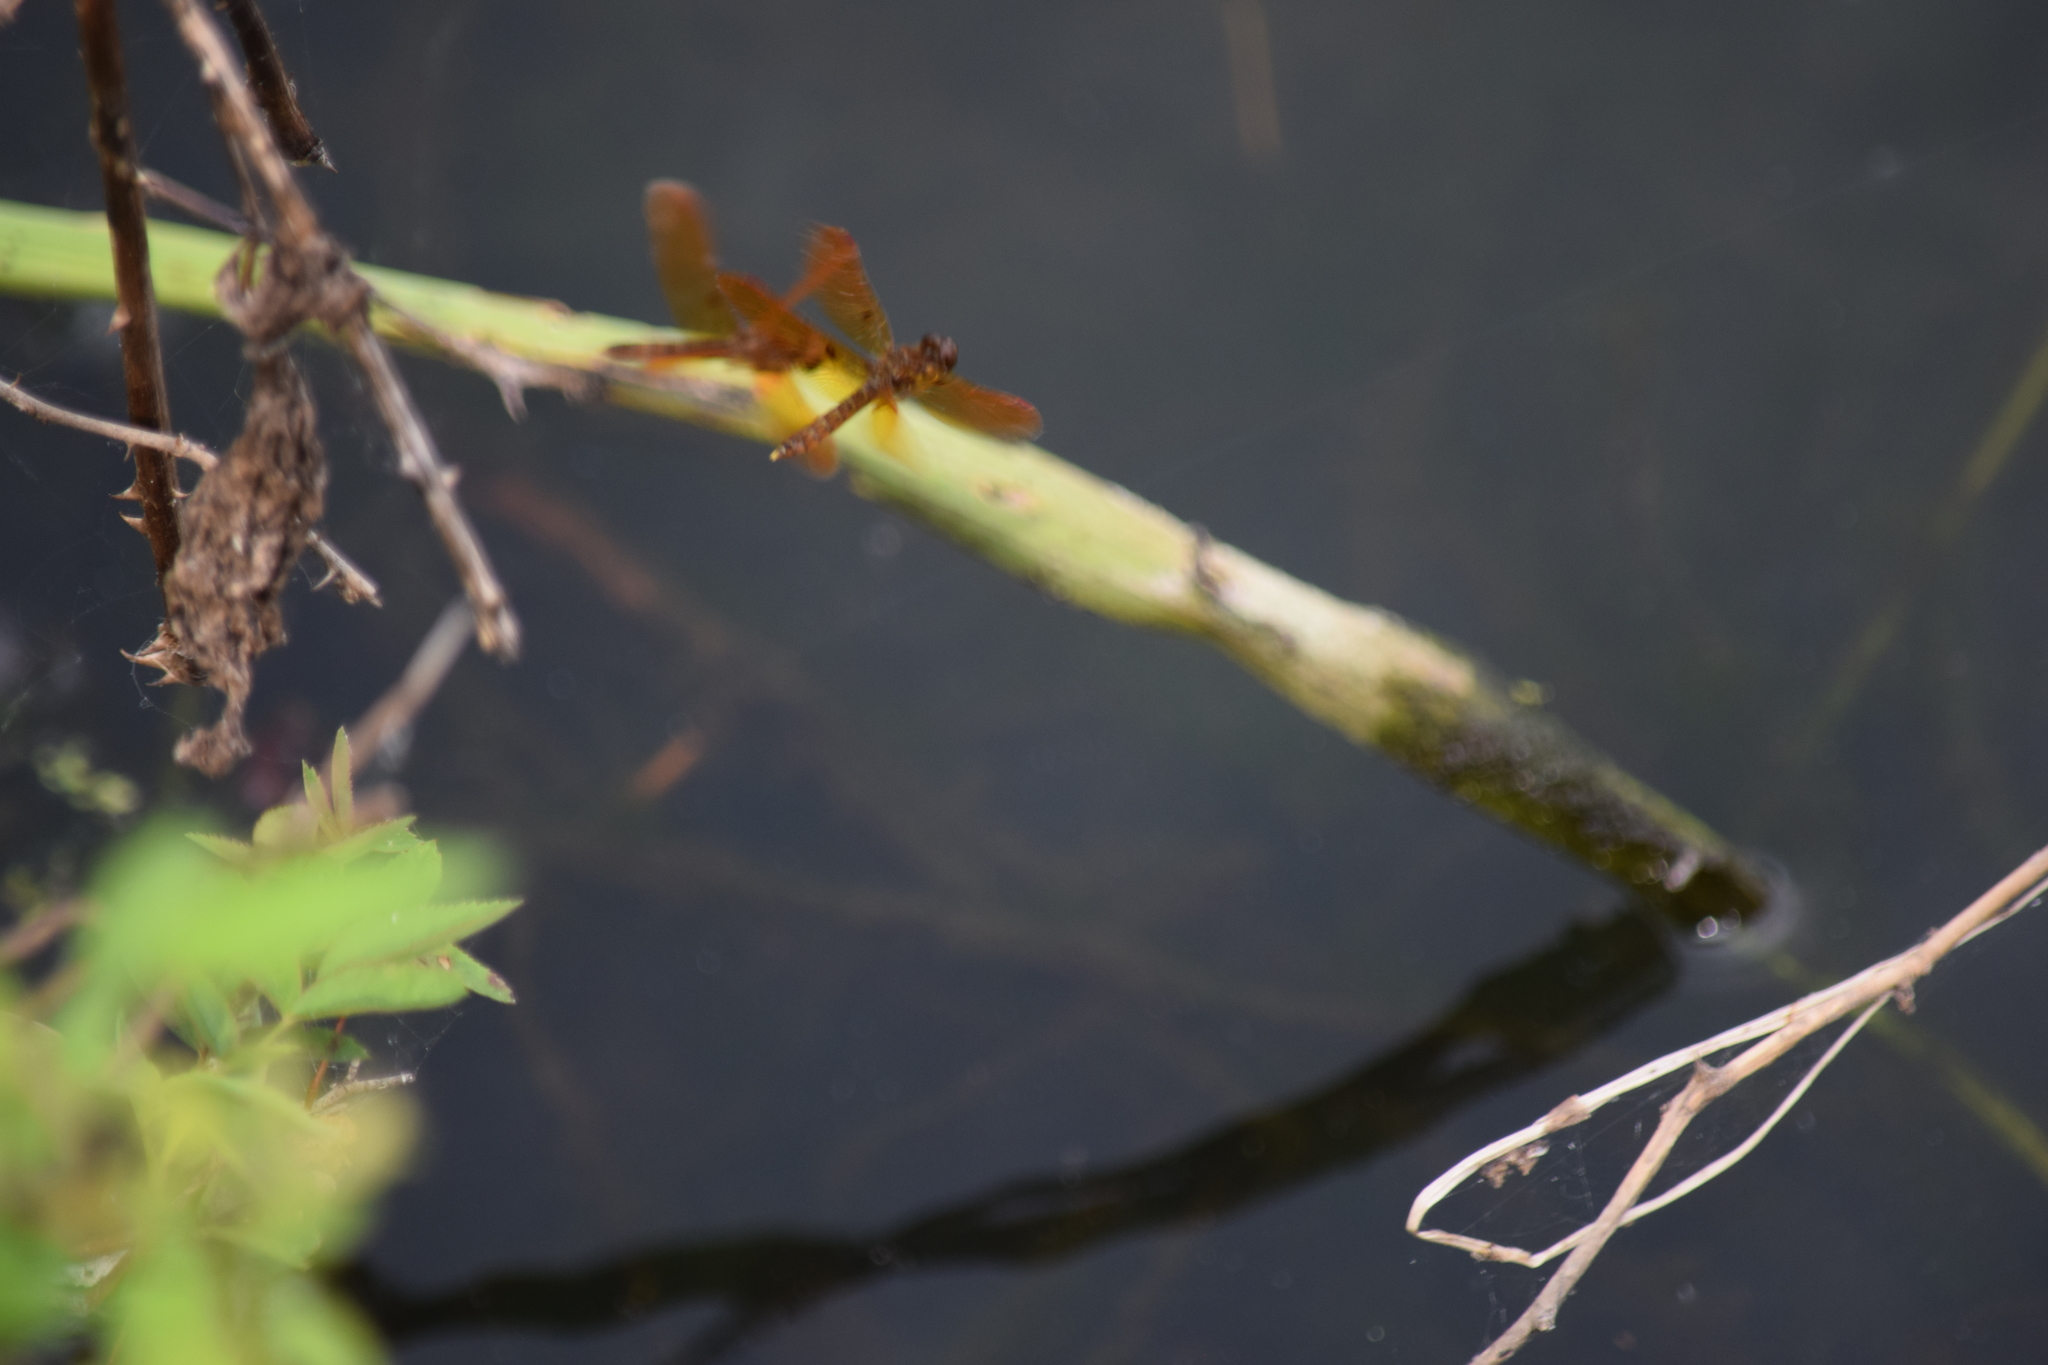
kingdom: Animalia
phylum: Arthropoda
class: Insecta
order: Odonata
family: Libellulidae
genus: Perithemis
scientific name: Perithemis tenera
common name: Eastern amberwing
